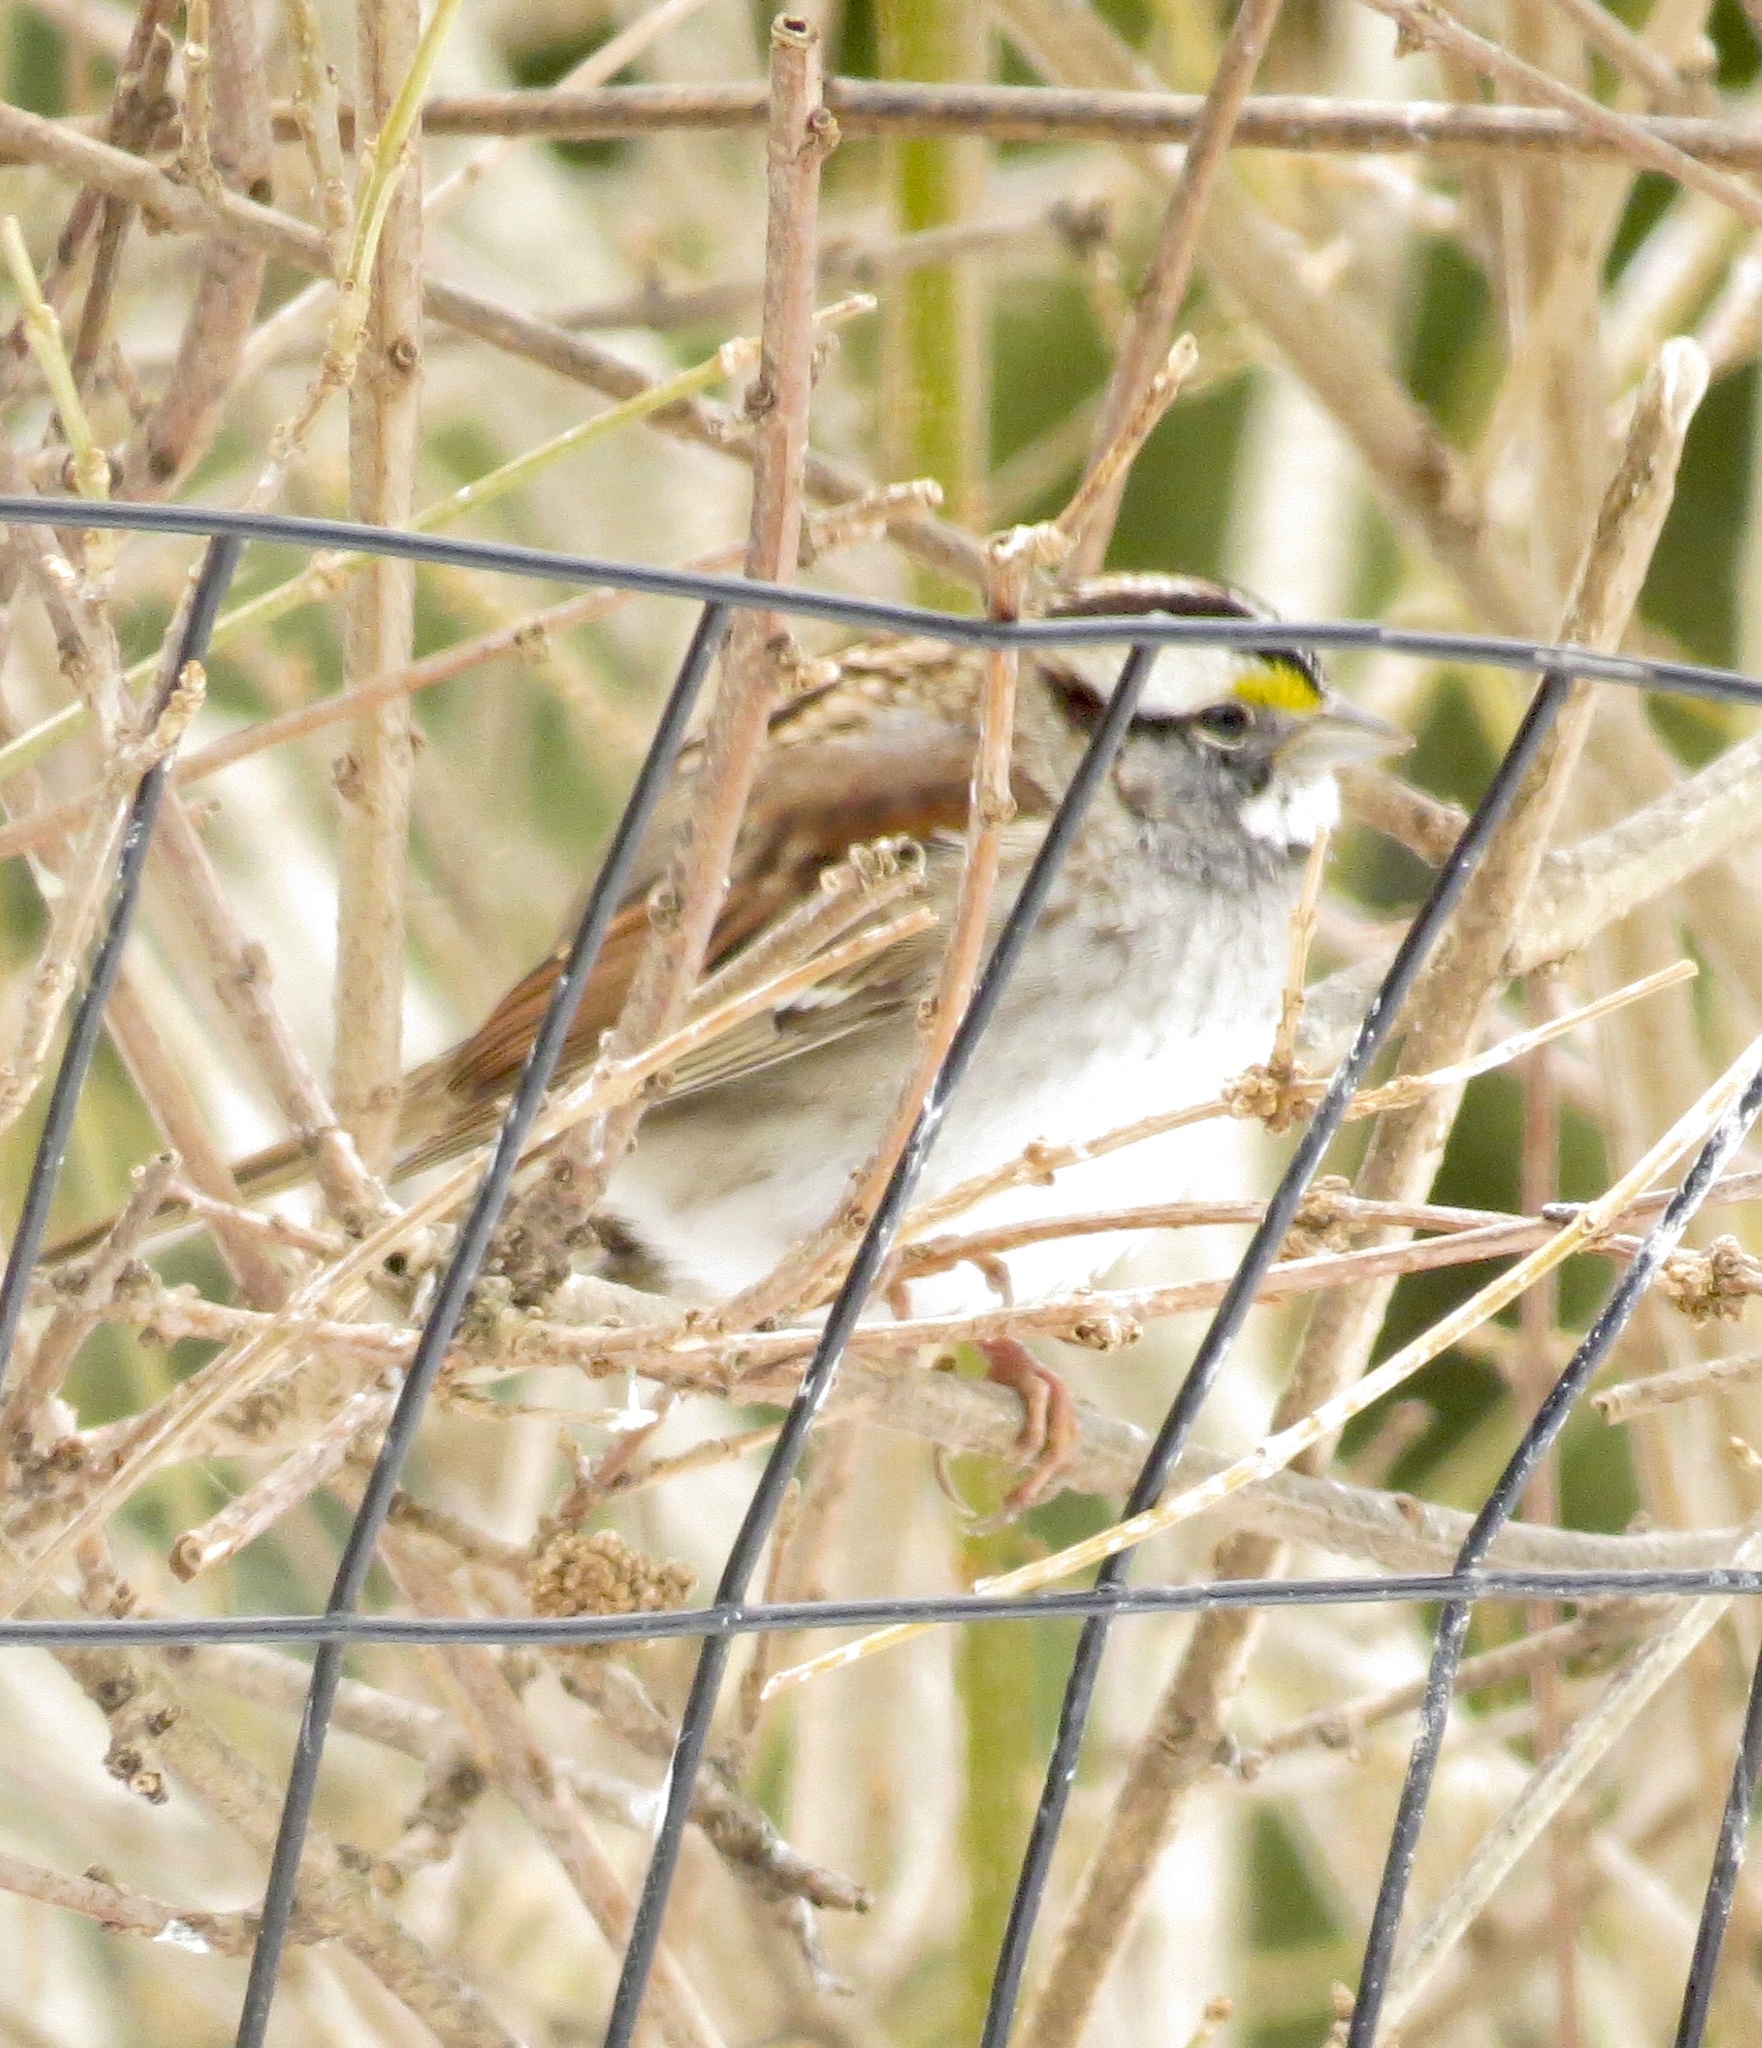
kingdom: Animalia
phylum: Chordata
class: Aves
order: Passeriformes
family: Passerellidae
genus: Zonotrichia
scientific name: Zonotrichia albicollis
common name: White-throated sparrow
